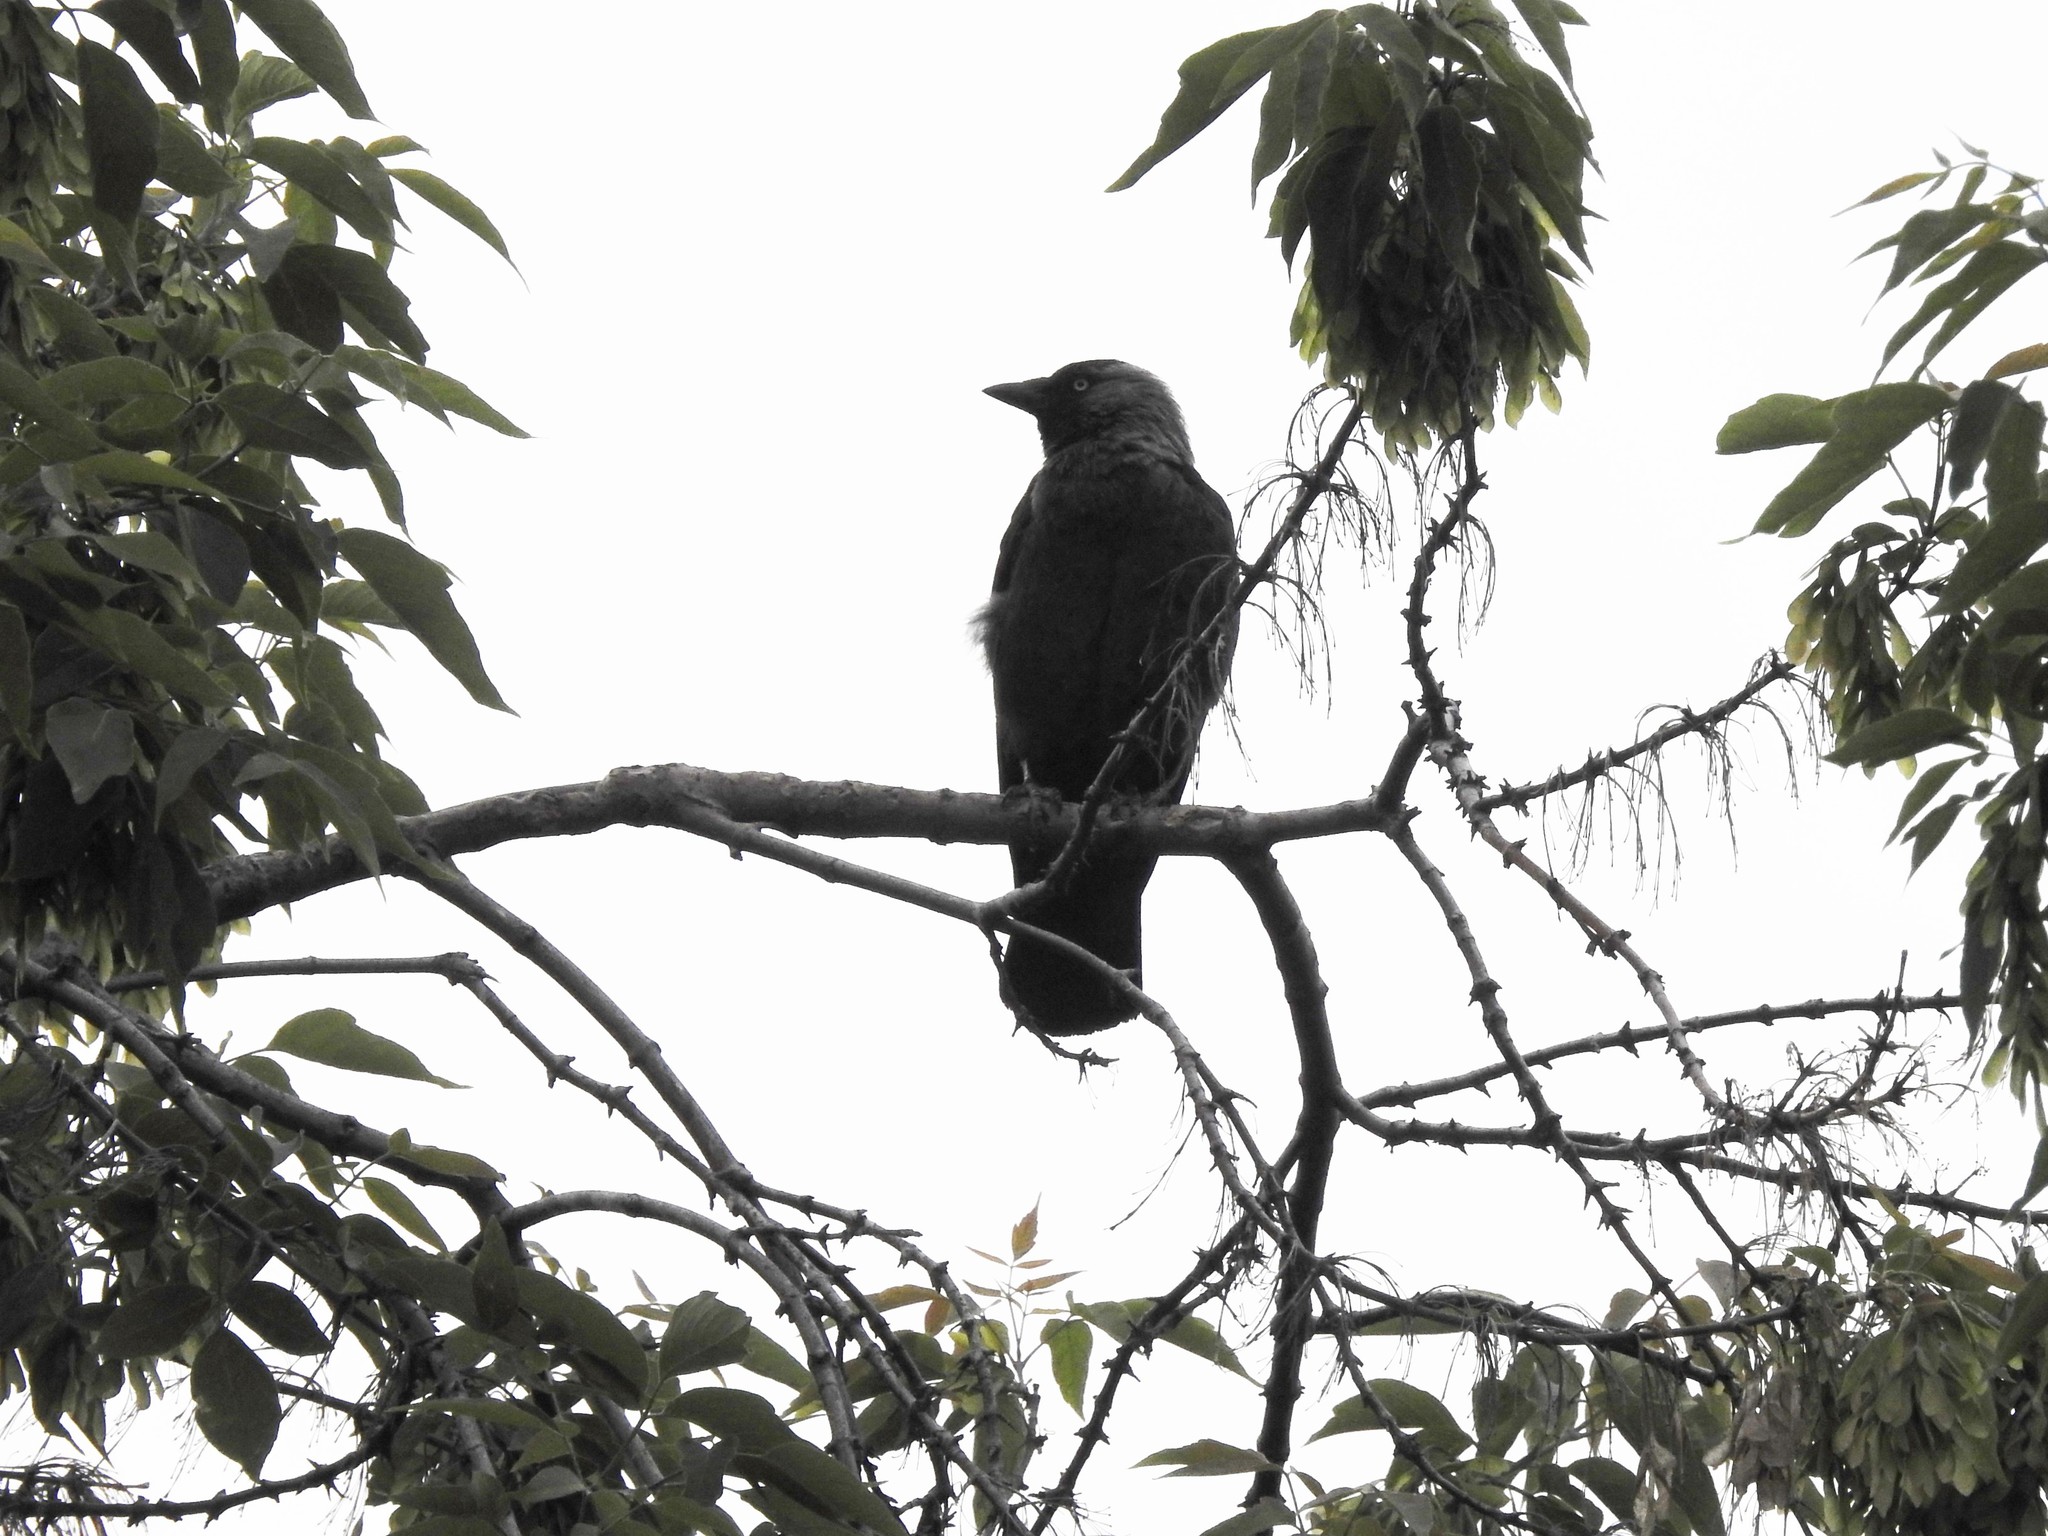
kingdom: Animalia
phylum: Chordata
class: Aves
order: Passeriformes
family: Corvidae
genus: Coloeus
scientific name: Coloeus monedula
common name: Western jackdaw
